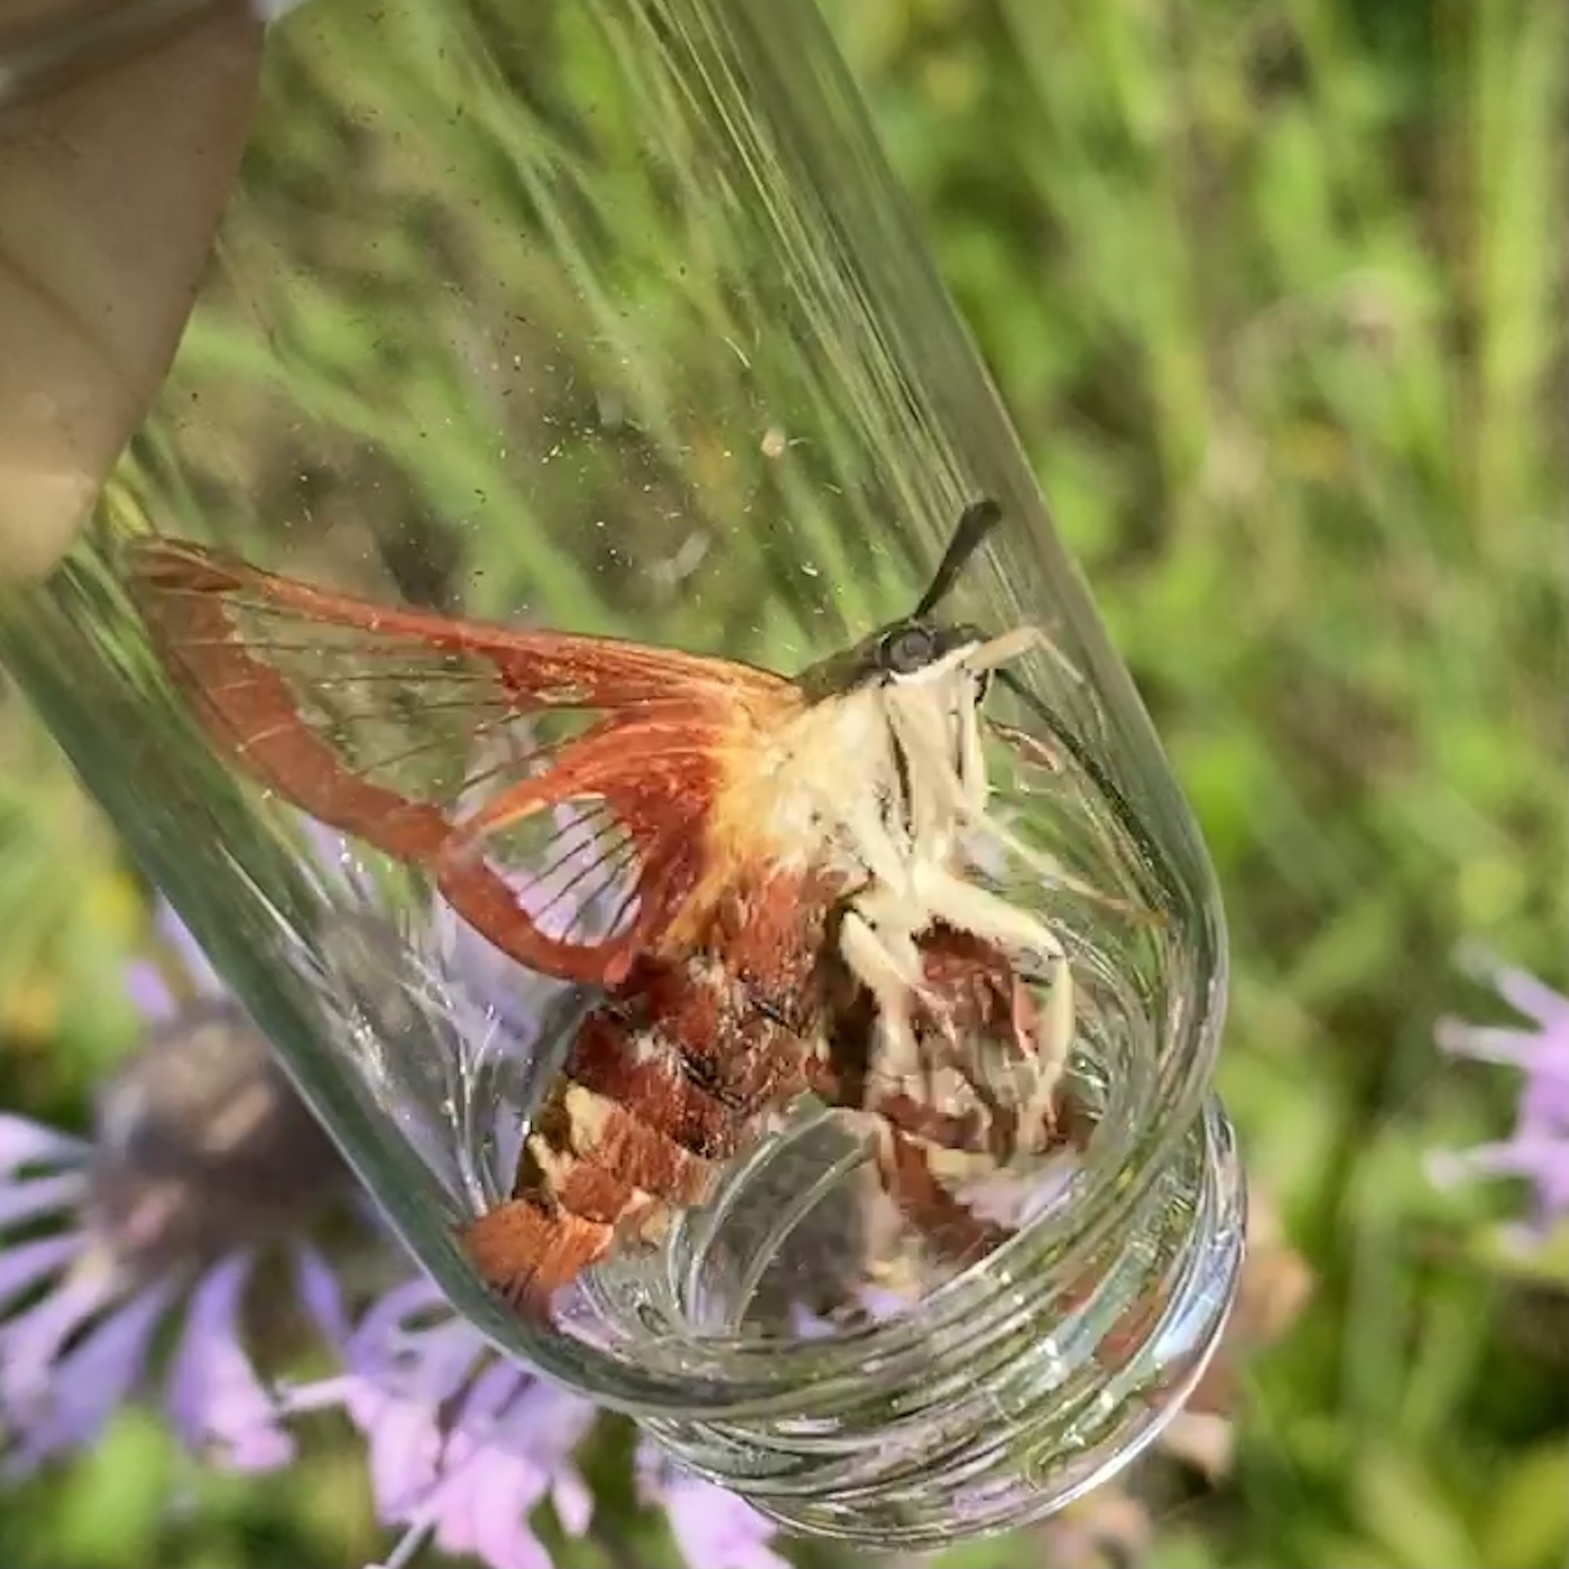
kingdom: Animalia
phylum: Arthropoda
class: Insecta
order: Lepidoptera
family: Sphingidae
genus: Hemaris
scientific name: Hemaris thysbe
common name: Common clear-wing
